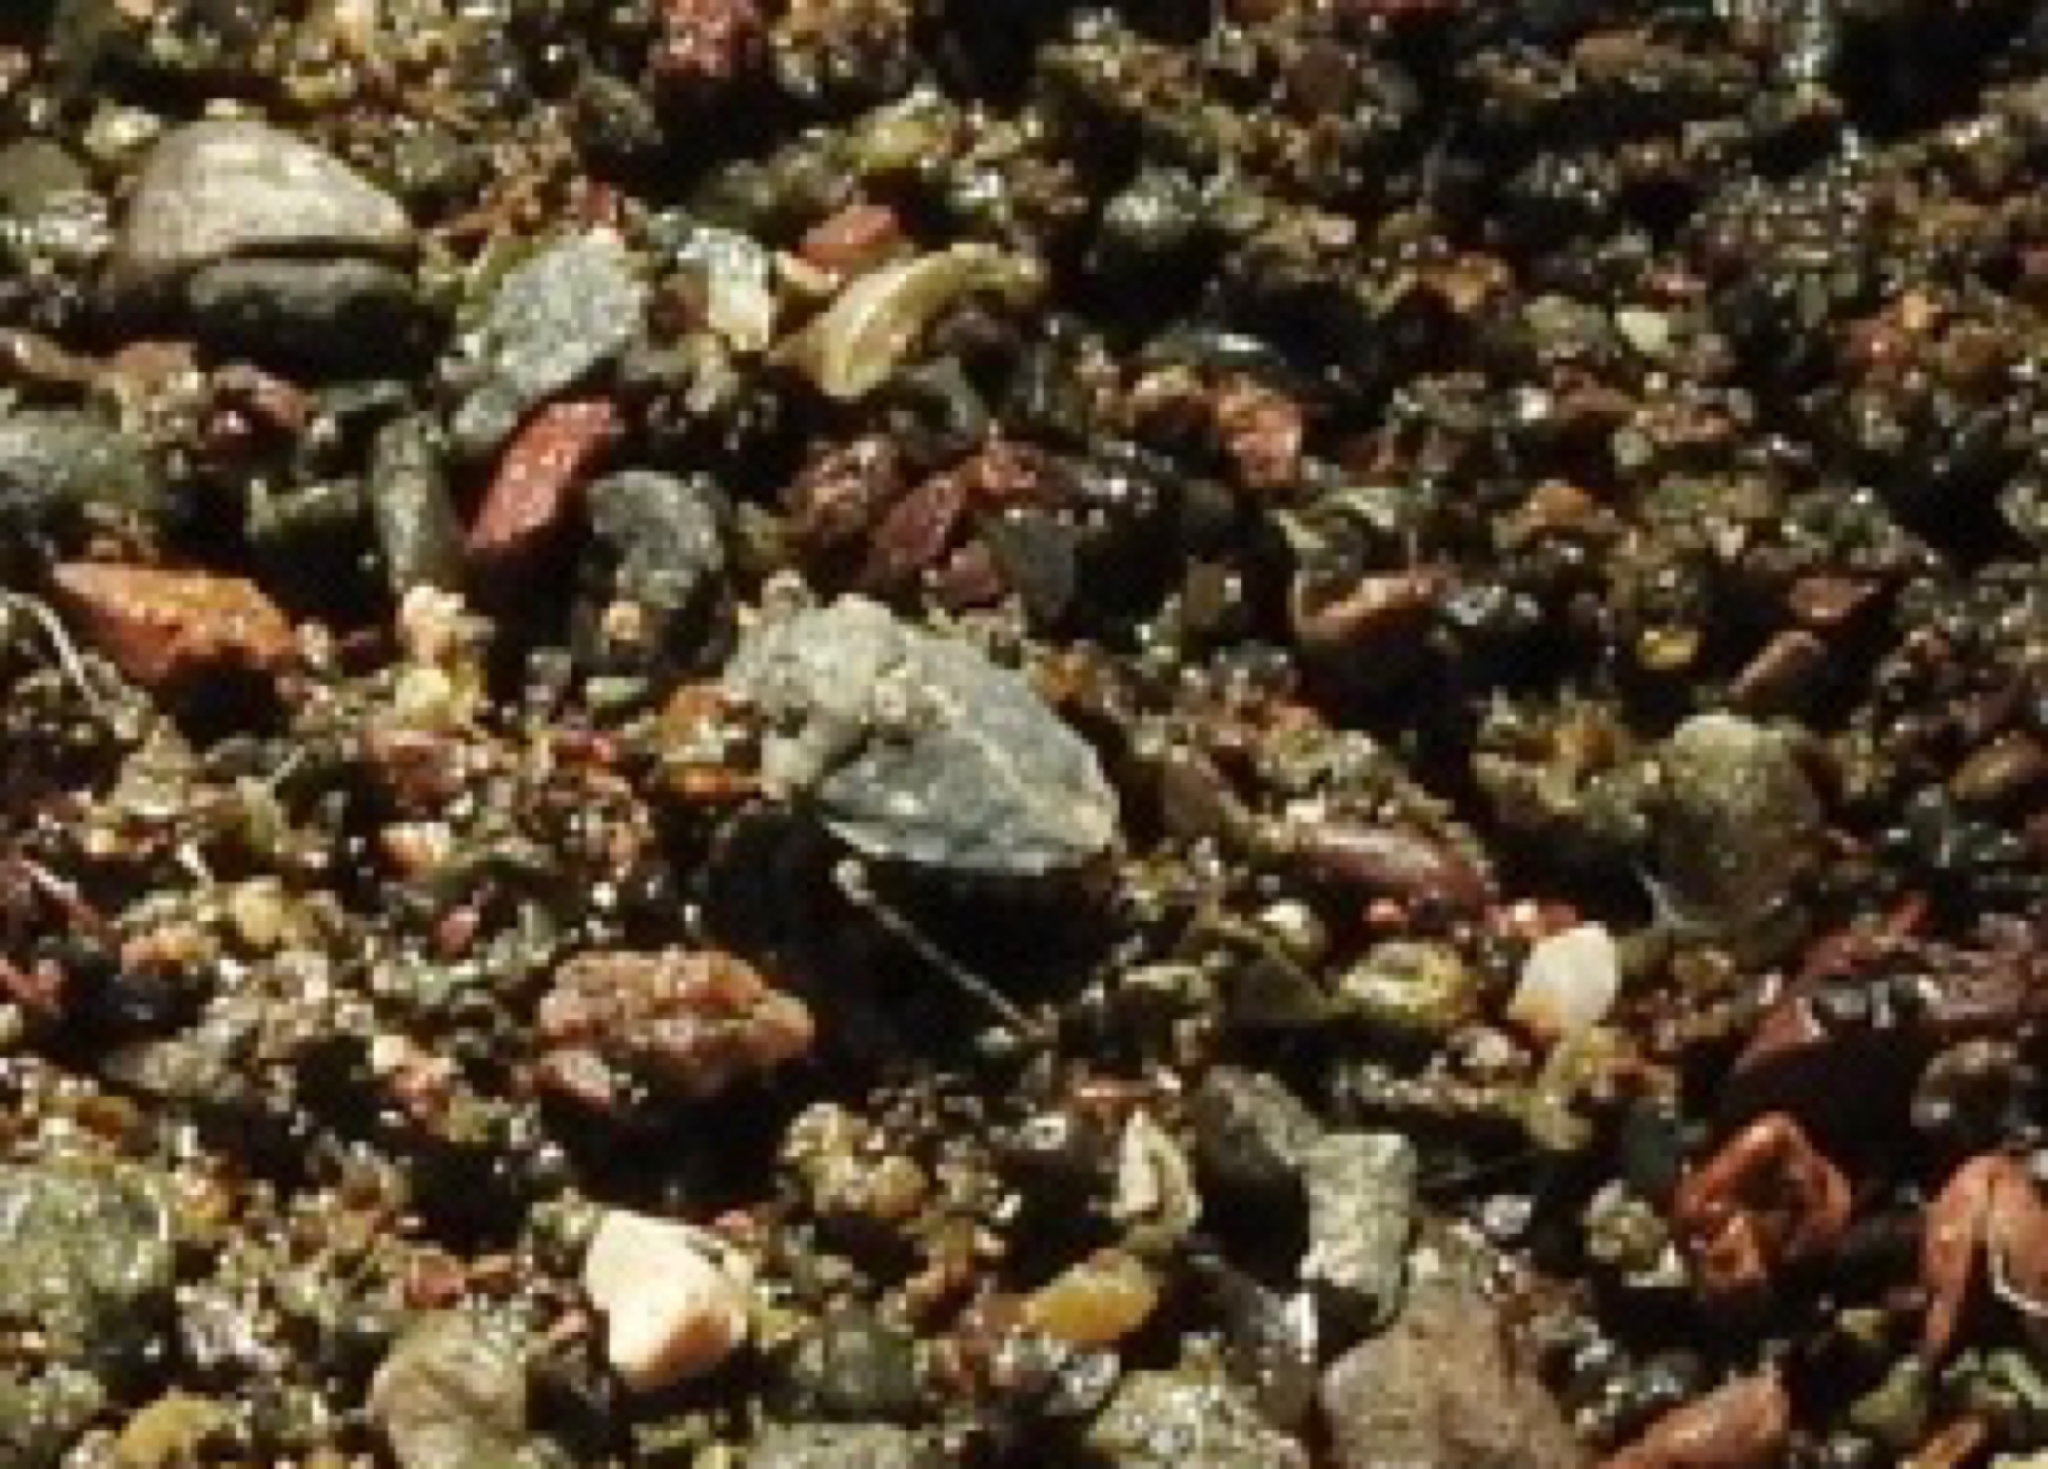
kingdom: Animalia
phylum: Arthropoda
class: Insecta
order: Hemiptera
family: Gelastocoridae
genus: Gelastocoris
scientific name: Gelastocoris oculatus
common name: Toad bug
